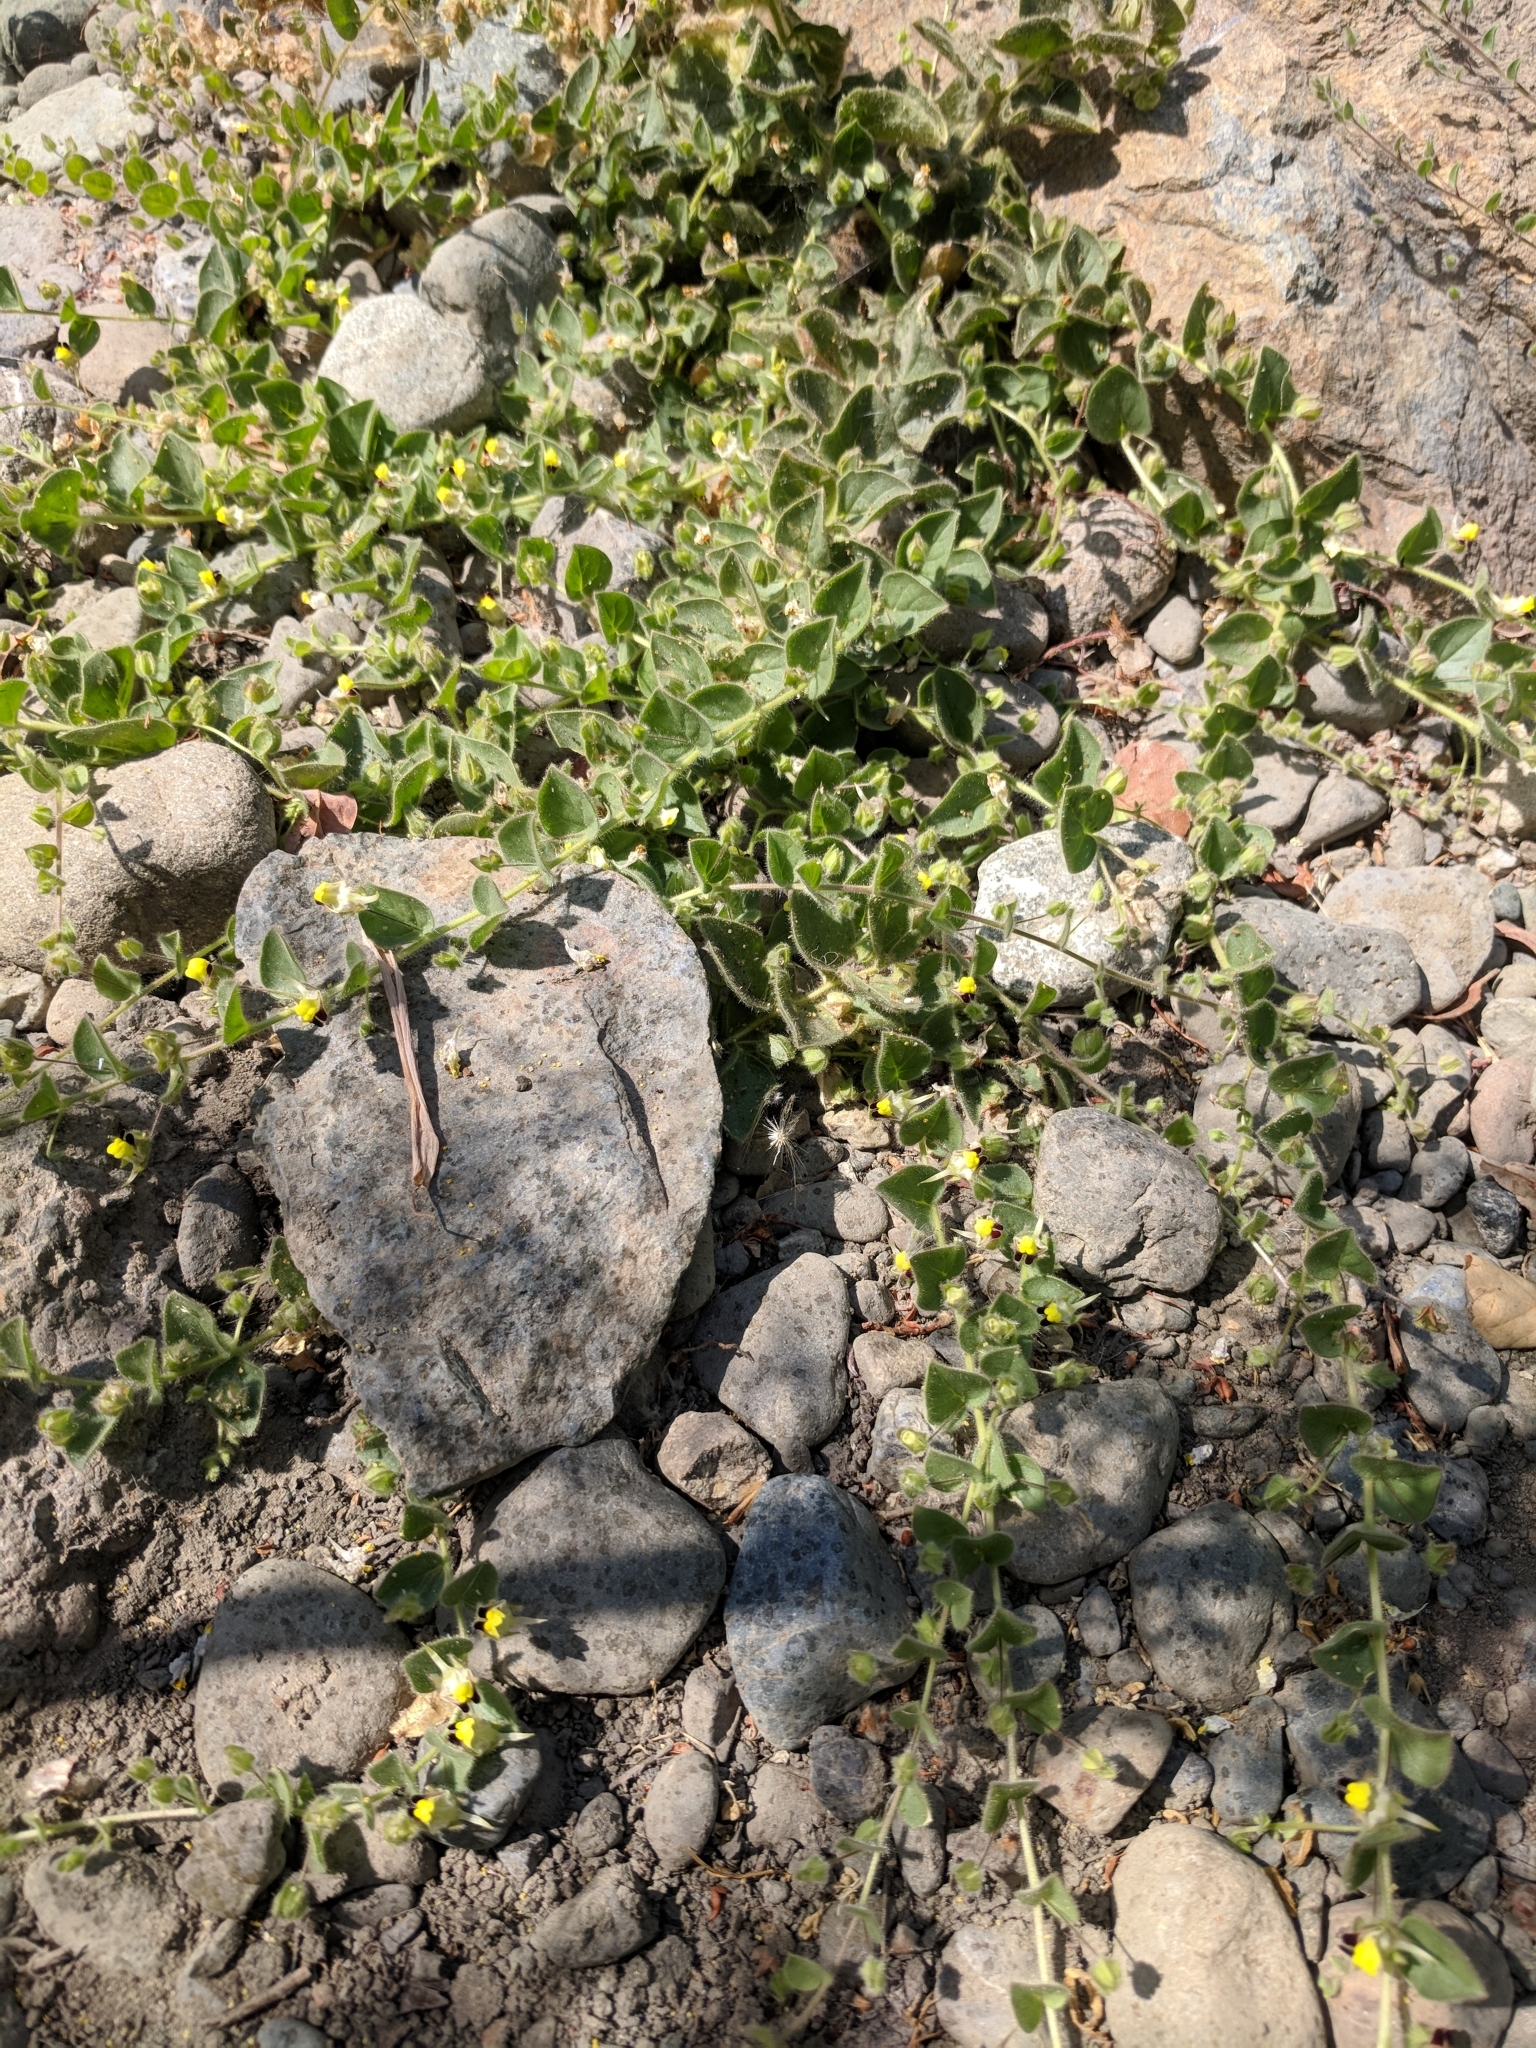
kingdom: Plantae
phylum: Tracheophyta
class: Magnoliopsida
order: Lamiales
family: Plantaginaceae
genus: Kickxia
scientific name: Kickxia elatine
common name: Sharp-leaved fluellen
